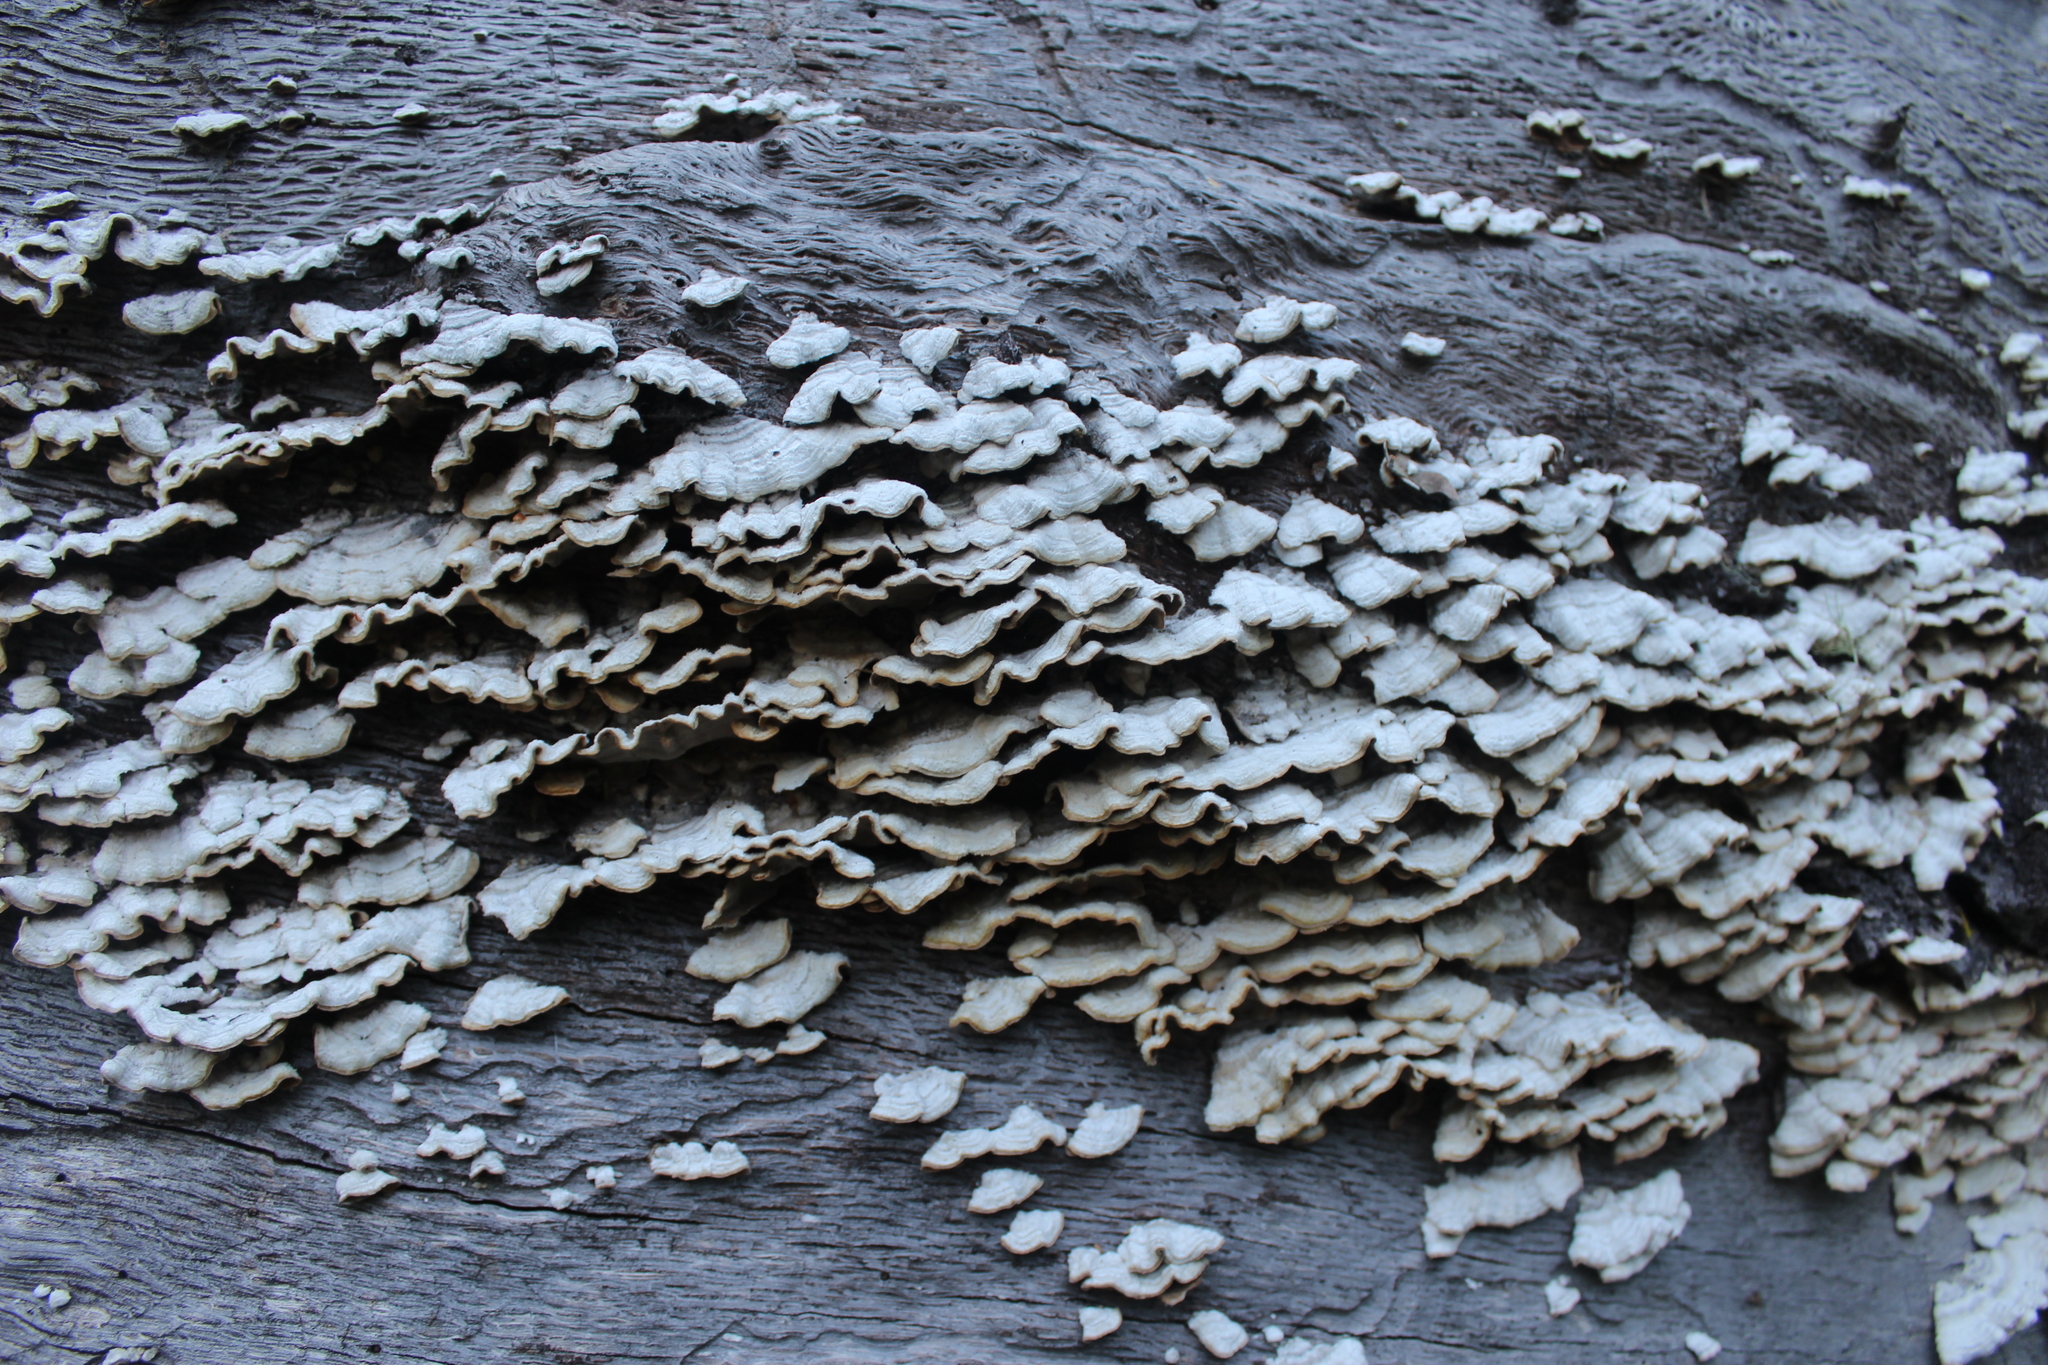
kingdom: Fungi
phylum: Basidiomycota
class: Agaricomycetes
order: Russulales
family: Stereaceae
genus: Stereum
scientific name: Stereum hirsutum
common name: Hairy curtain crust
